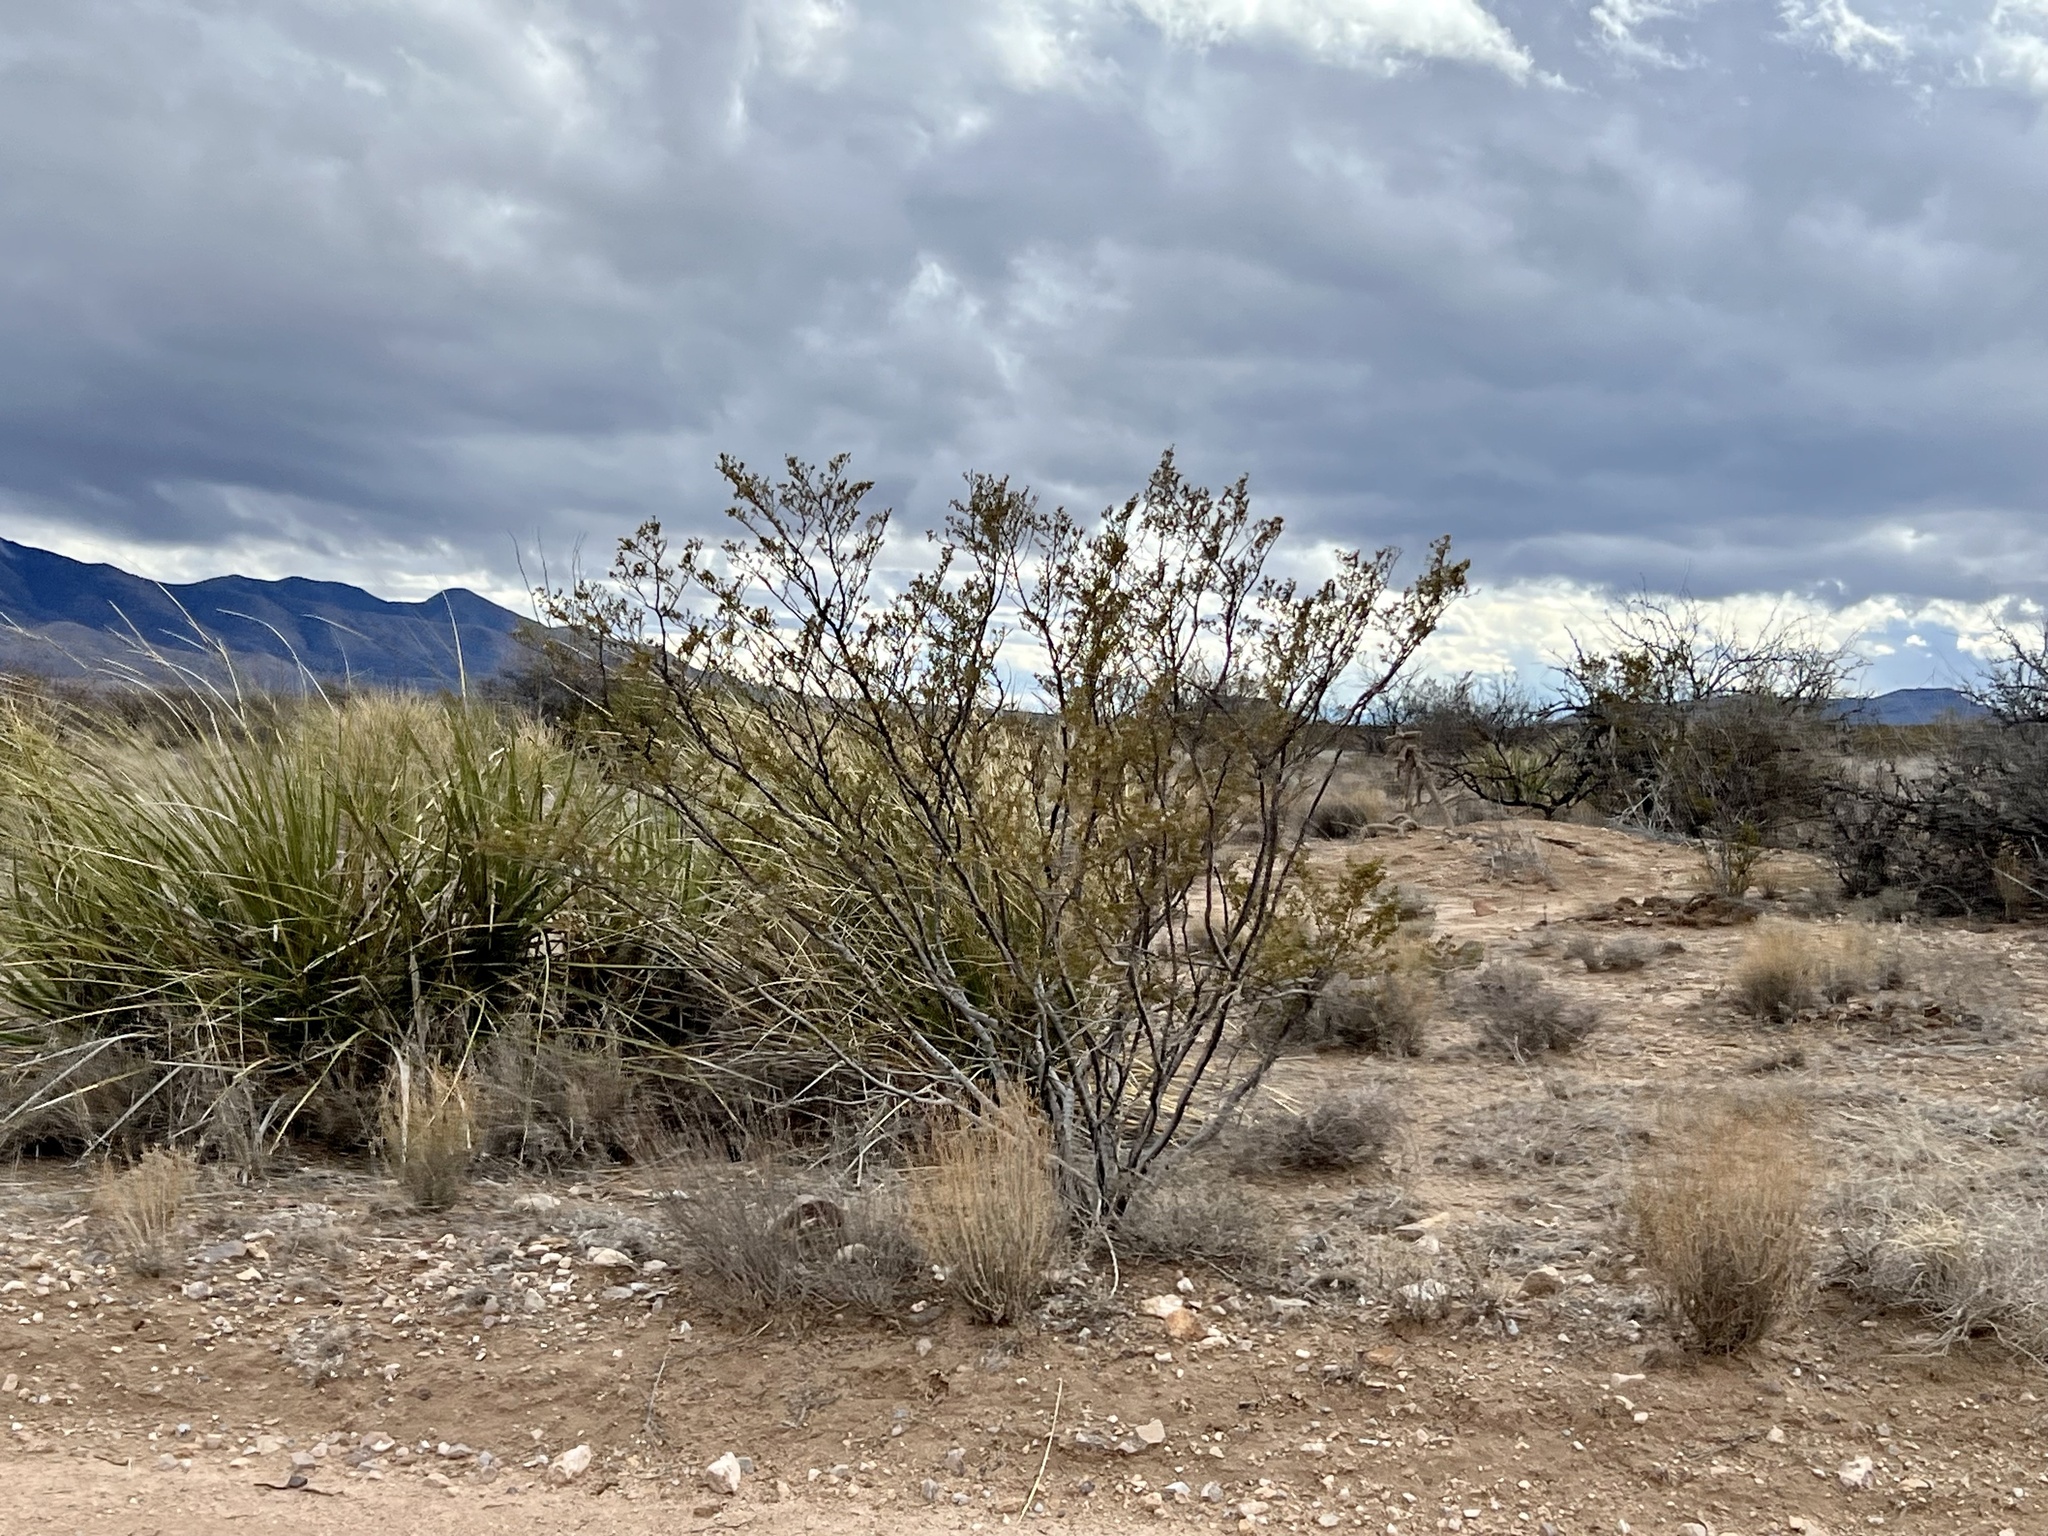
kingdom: Plantae
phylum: Tracheophyta
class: Magnoliopsida
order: Zygophyllales
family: Zygophyllaceae
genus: Larrea
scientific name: Larrea tridentata
